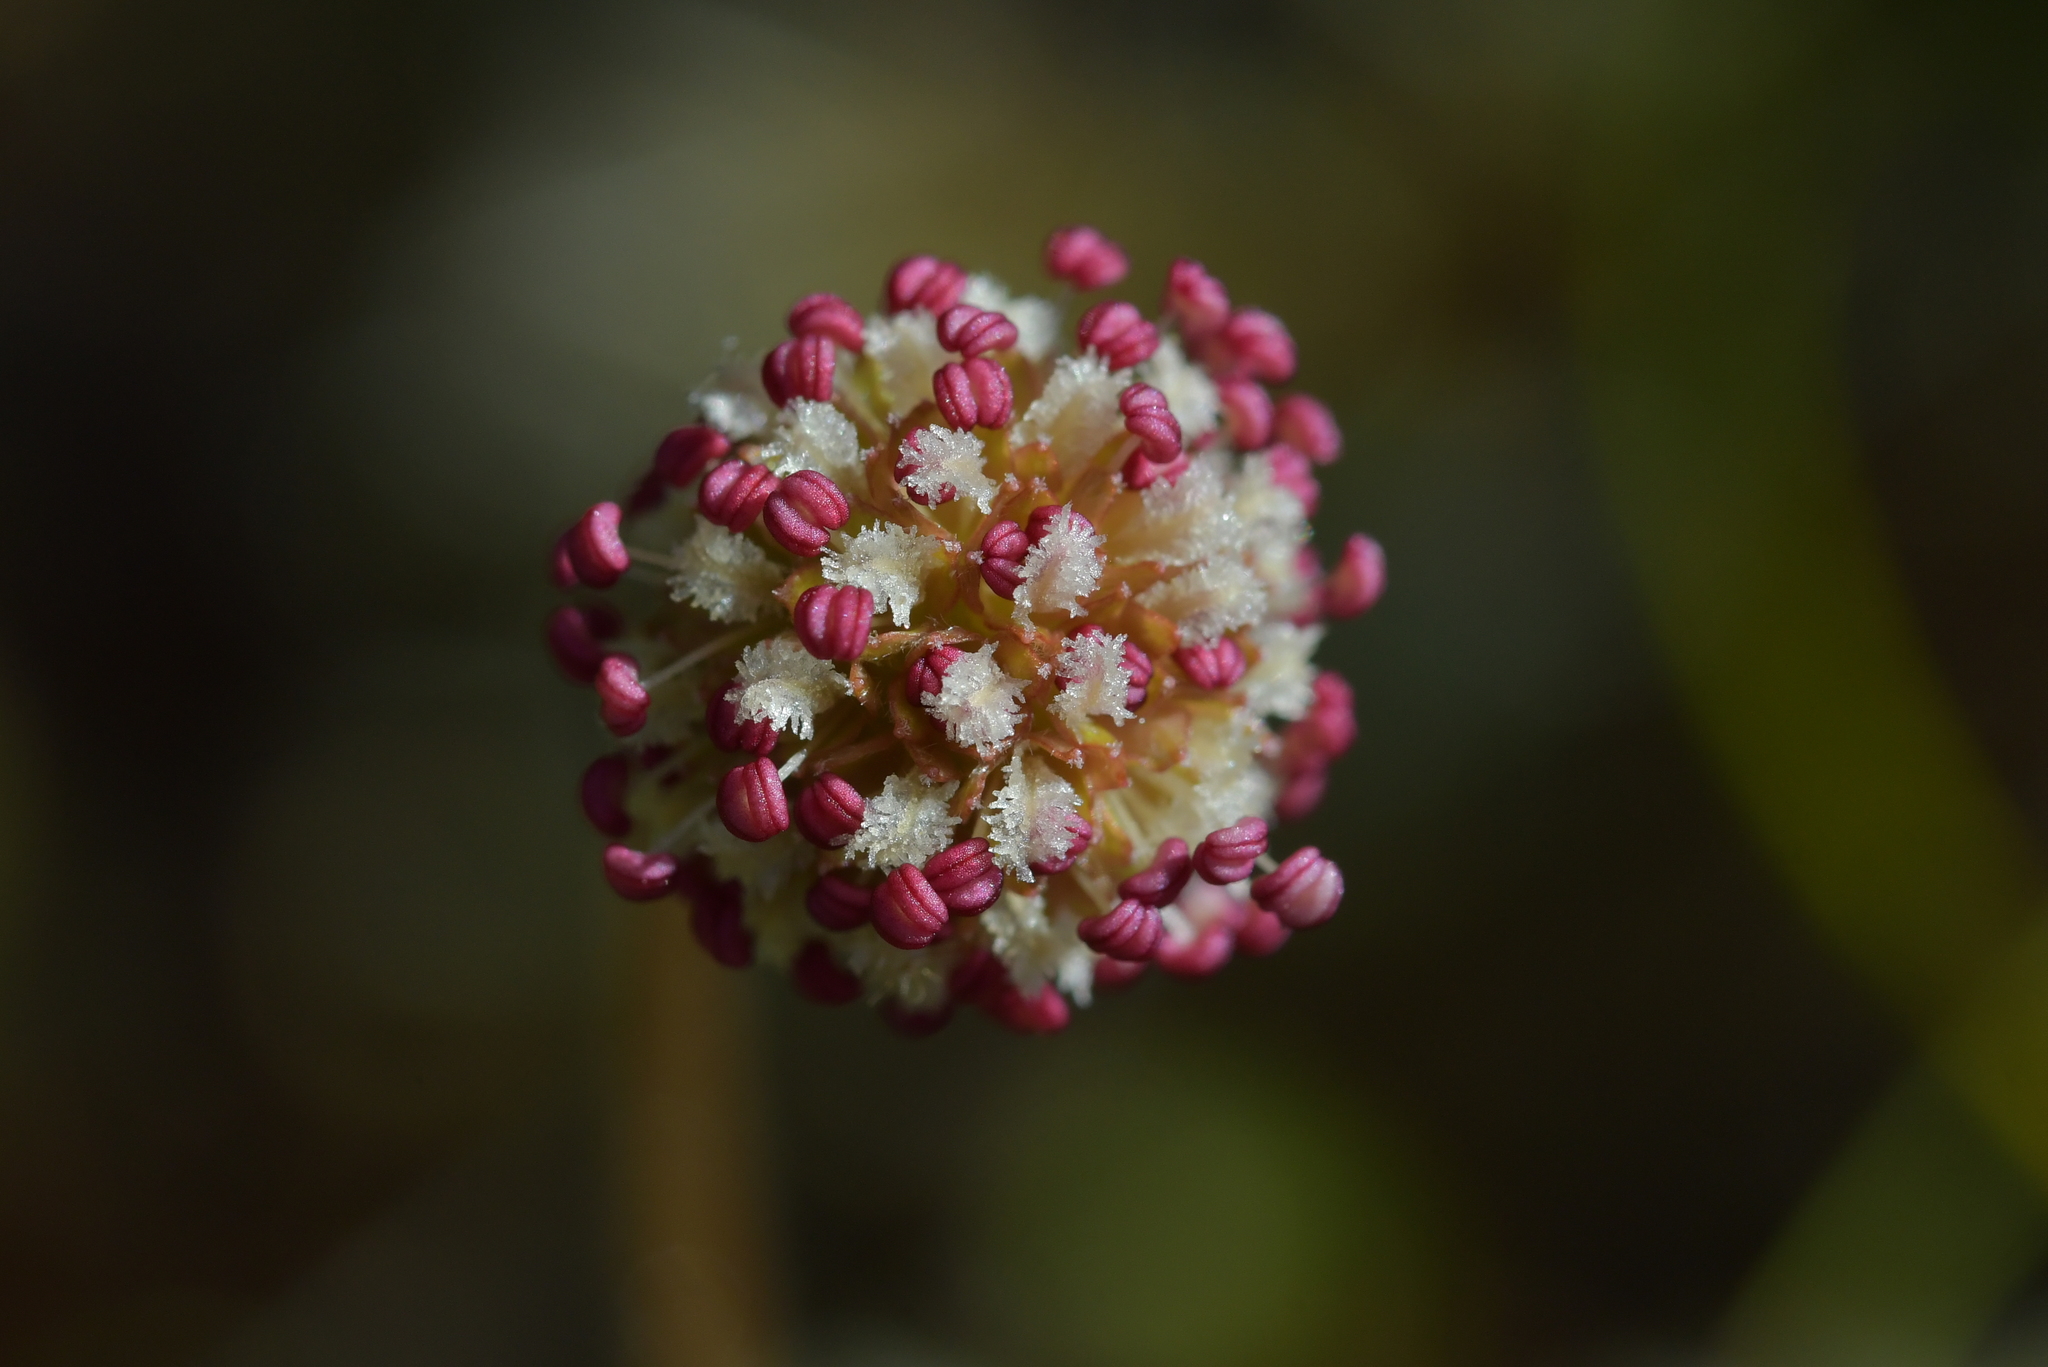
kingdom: Plantae
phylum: Tracheophyta
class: Magnoliopsida
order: Rosales
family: Rosaceae
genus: Acaena
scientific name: Acaena anserinifolia
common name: Bronze pirri-pirri-bur
